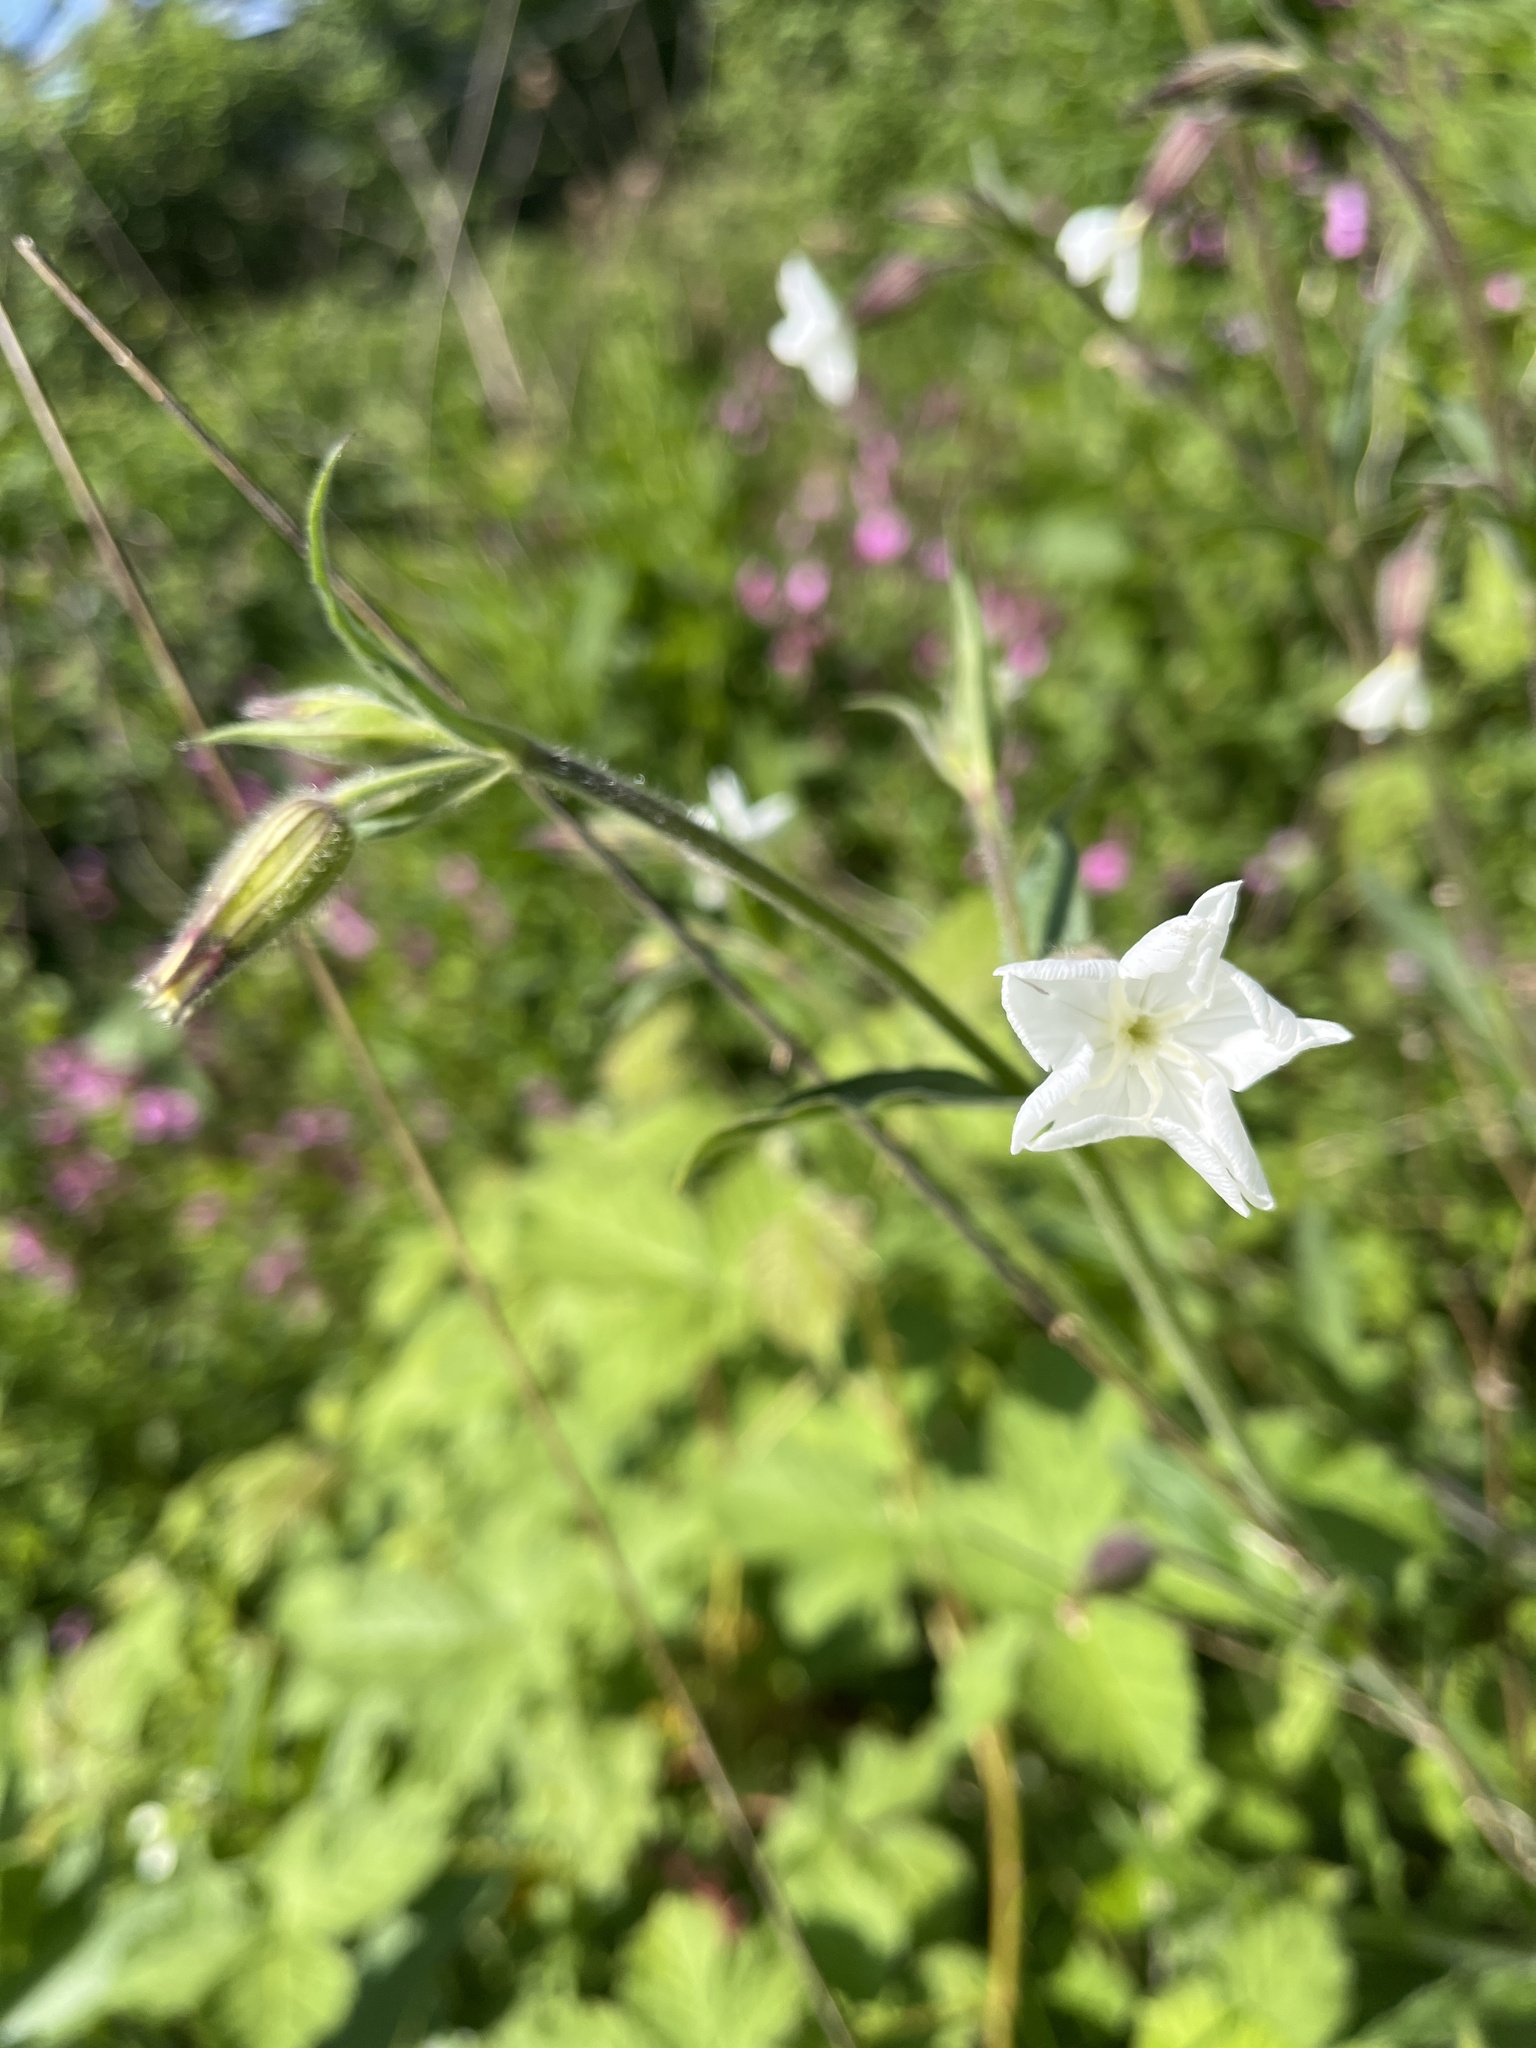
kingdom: Plantae
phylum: Tracheophyta
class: Magnoliopsida
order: Caryophyllales
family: Caryophyllaceae
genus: Silene
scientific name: Silene latifolia
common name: White campion
